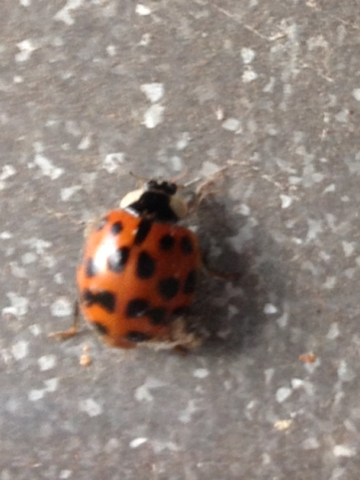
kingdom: Animalia
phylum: Arthropoda
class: Insecta
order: Coleoptera
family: Coccinellidae
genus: Harmonia
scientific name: Harmonia axyridis
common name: Harlequin ladybird
